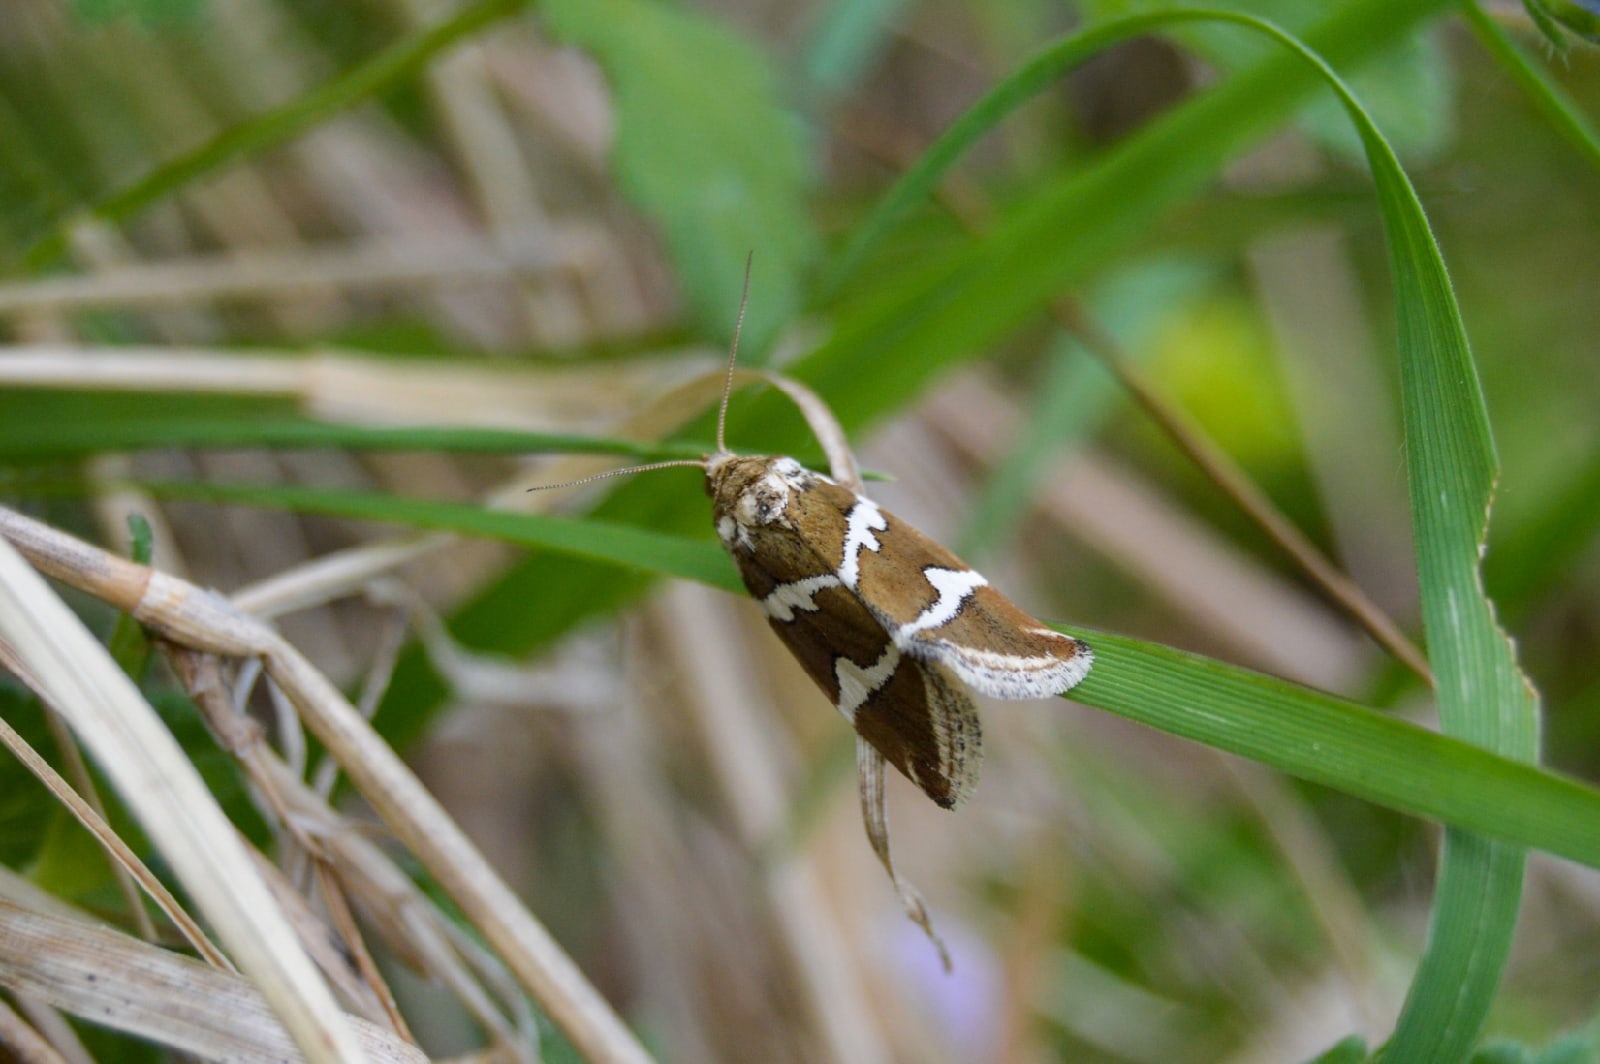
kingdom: Animalia
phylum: Arthropoda
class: Insecta
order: Lepidoptera
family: Noctuidae
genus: Deltote
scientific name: Deltote bankiana
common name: Silver barred
